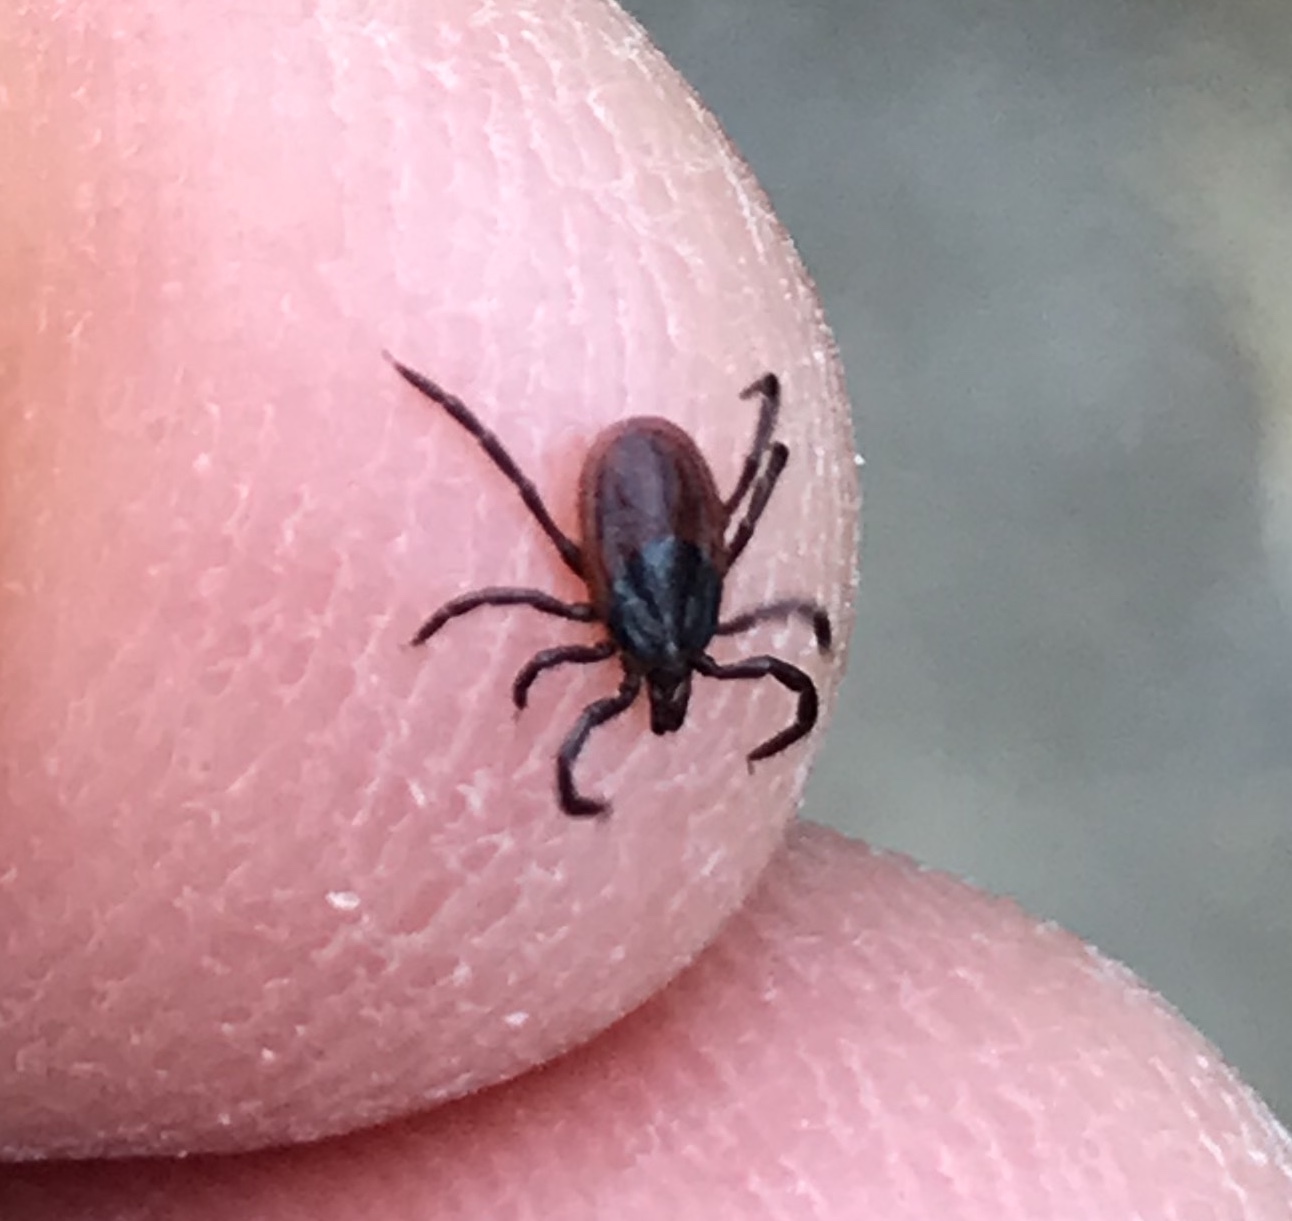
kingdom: Animalia
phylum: Arthropoda
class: Arachnida
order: Ixodida
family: Ixodidae
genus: Ixodes
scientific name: Ixodes pacificus
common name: California black-legged tick
